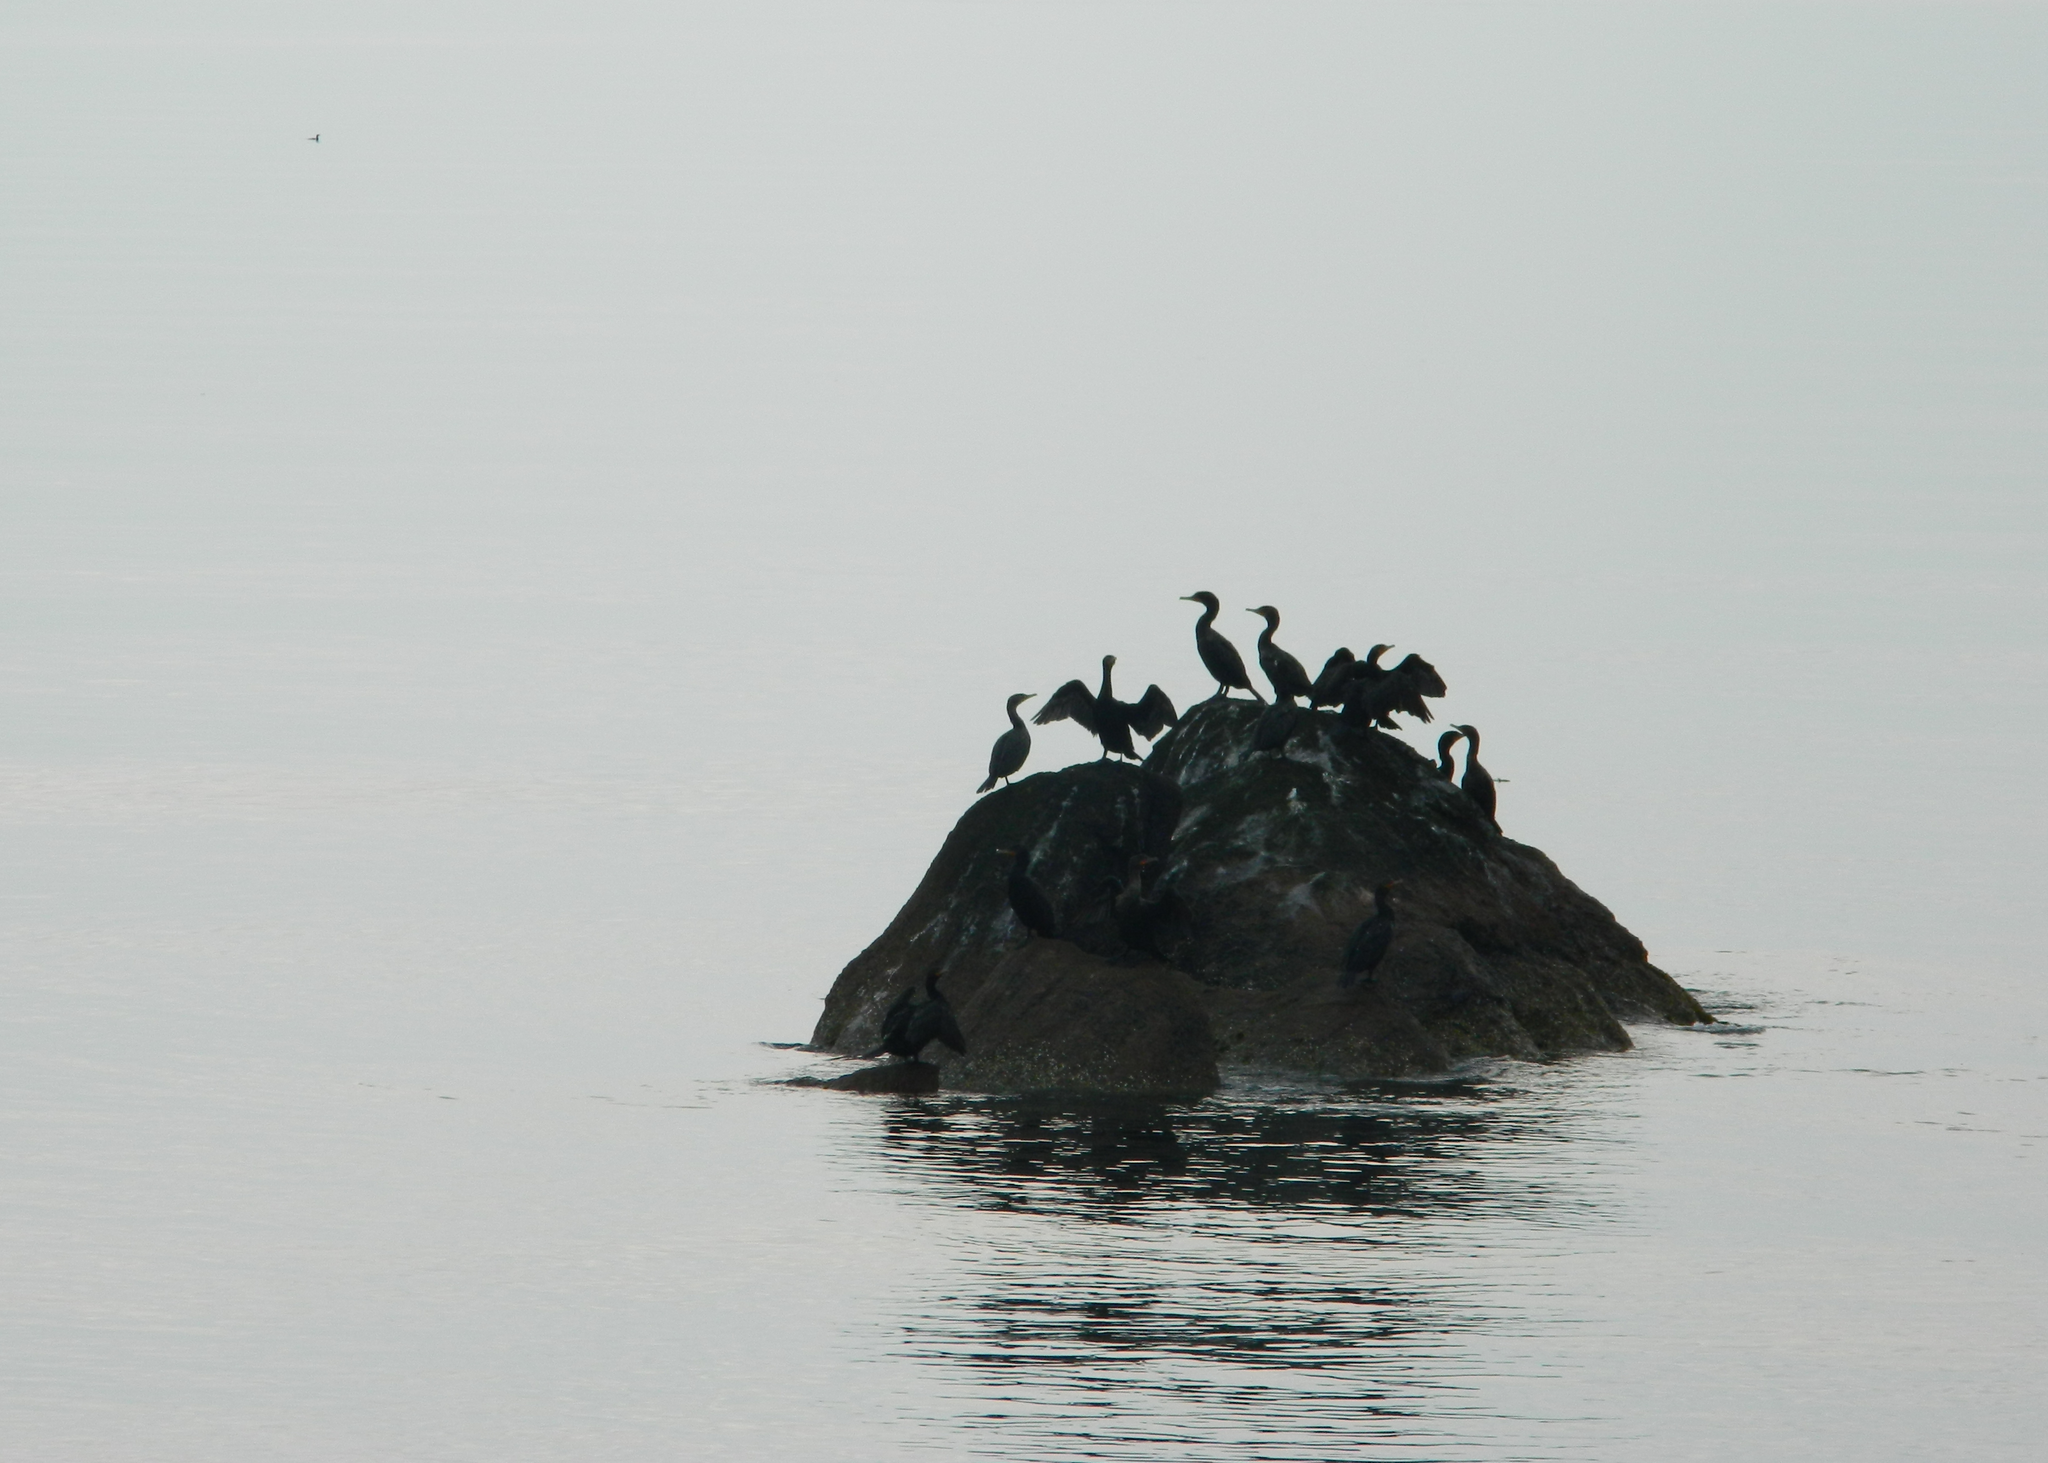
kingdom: Animalia
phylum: Chordata
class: Aves
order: Suliformes
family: Phalacrocoracidae
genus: Phalacrocorax
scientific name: Phalacrocorax auritus
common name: Double-crested cormorant
